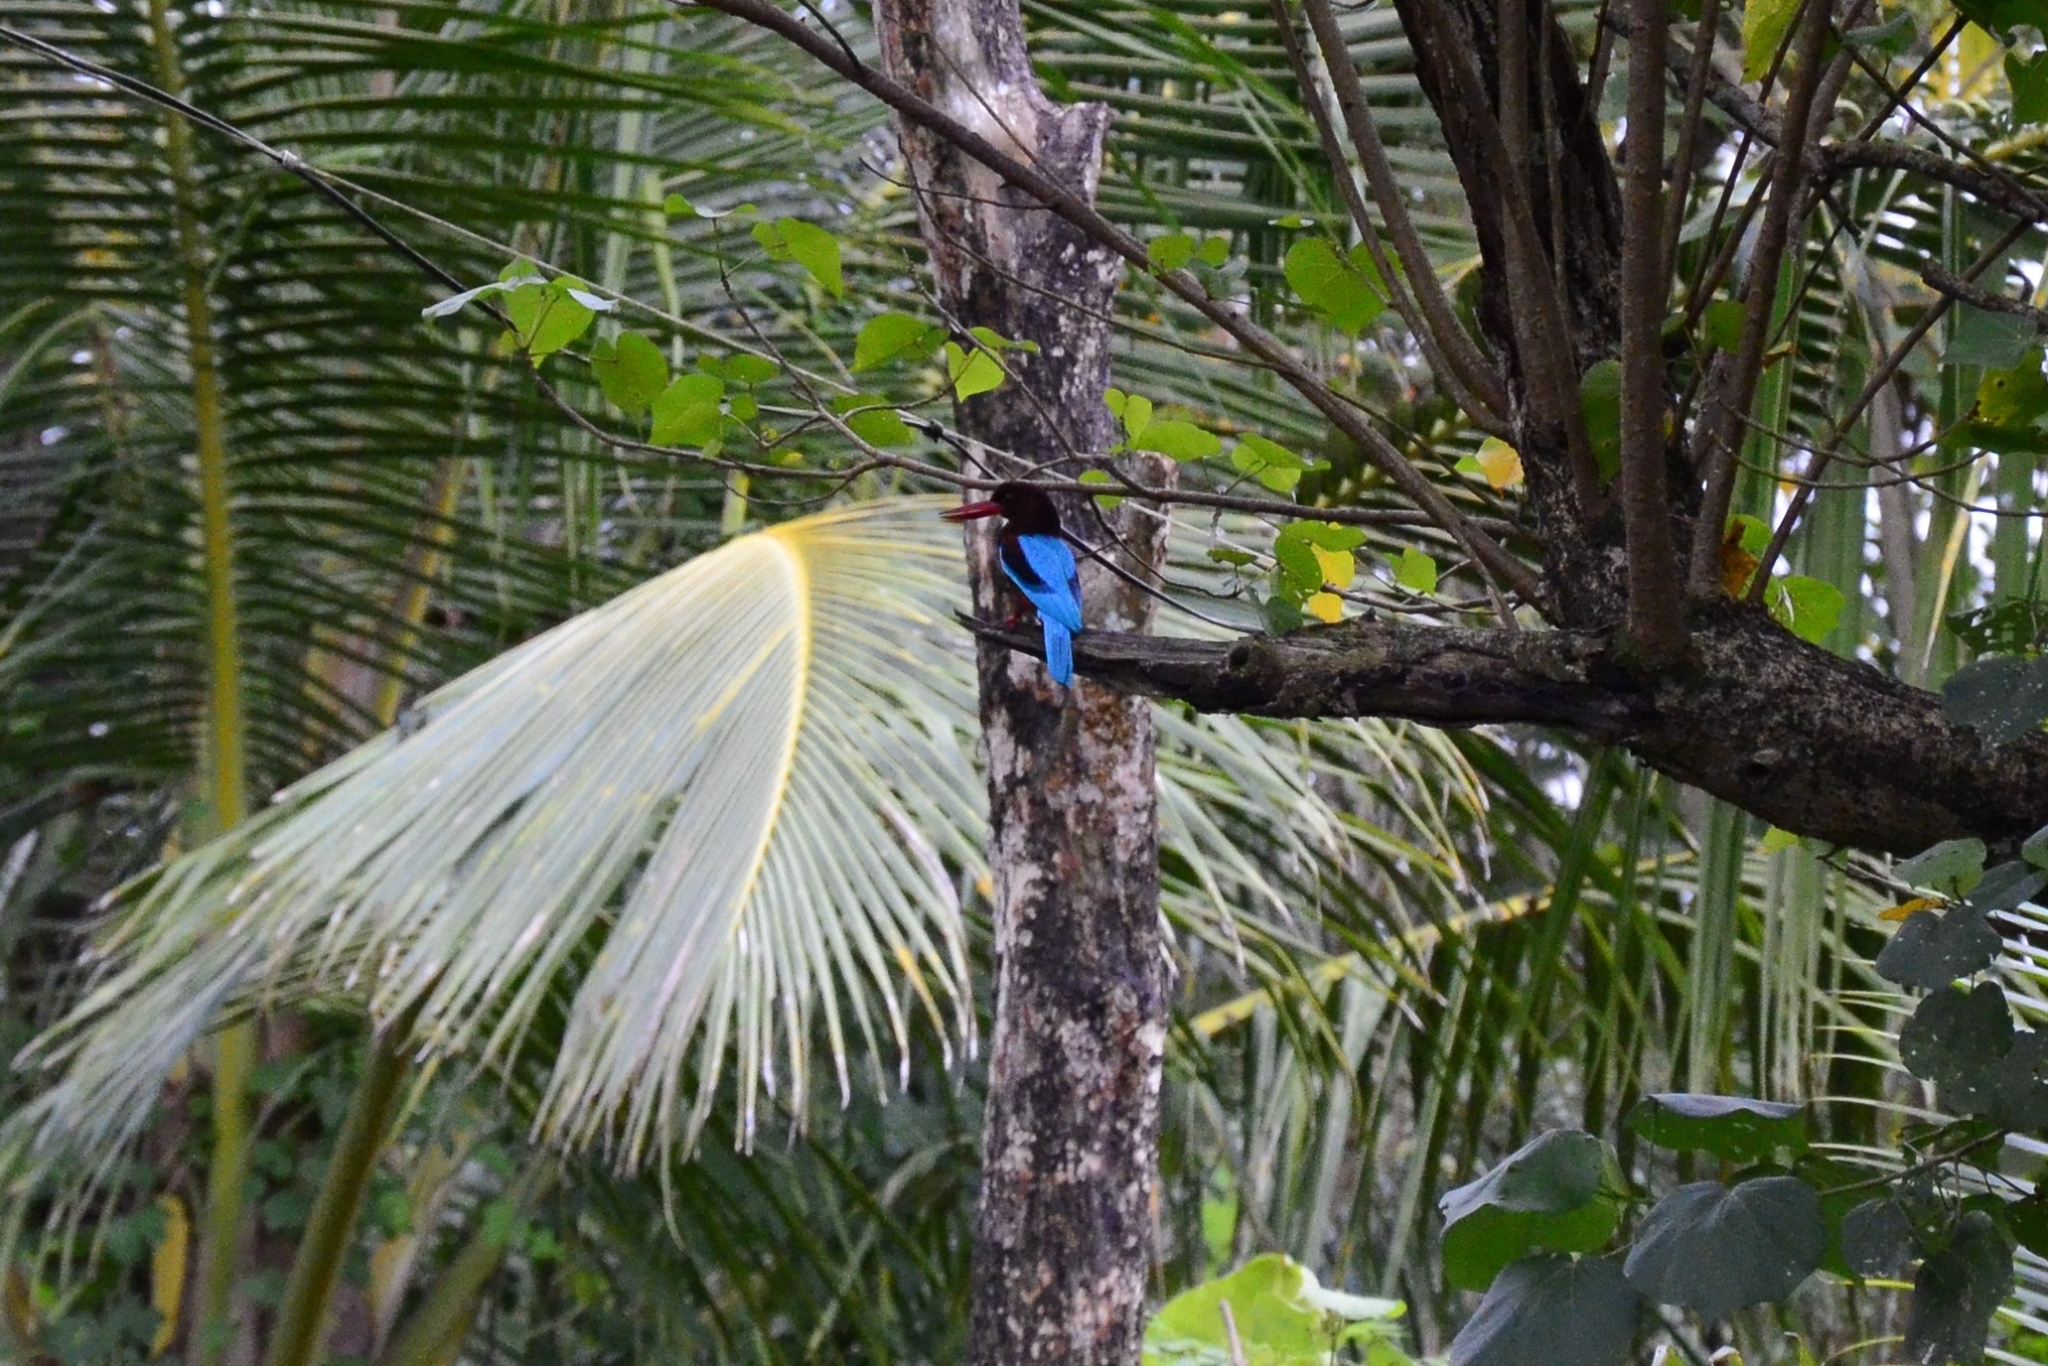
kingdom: Animalia
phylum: Chordata
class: Aves
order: Coraciiformes
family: Alcedinidae
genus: Halcyon
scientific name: Halcyon smyrnensis
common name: White-throated kingfisher
